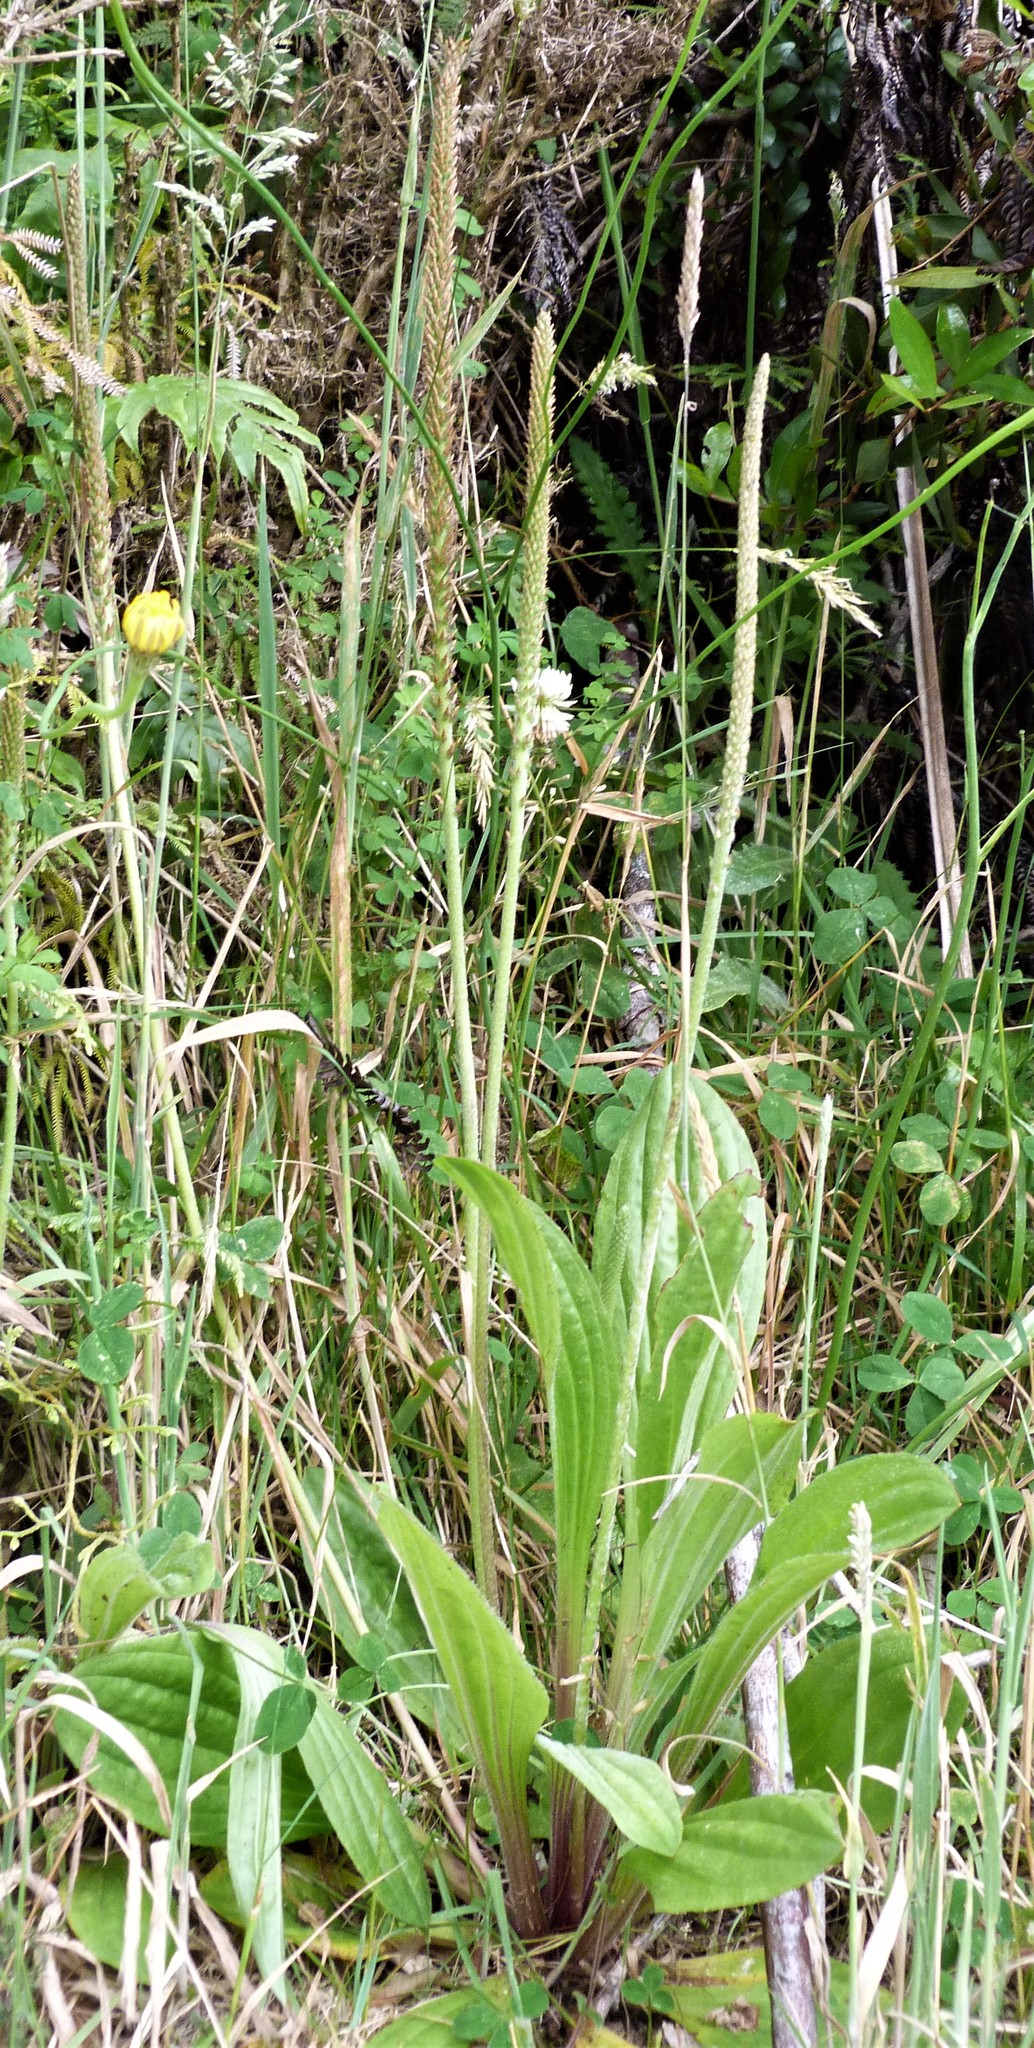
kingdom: Plantae
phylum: Tracheophyta
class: Magnoliopsida
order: Lamiales
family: Plantaginaceae
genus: Plantago
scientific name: Plantago australis
